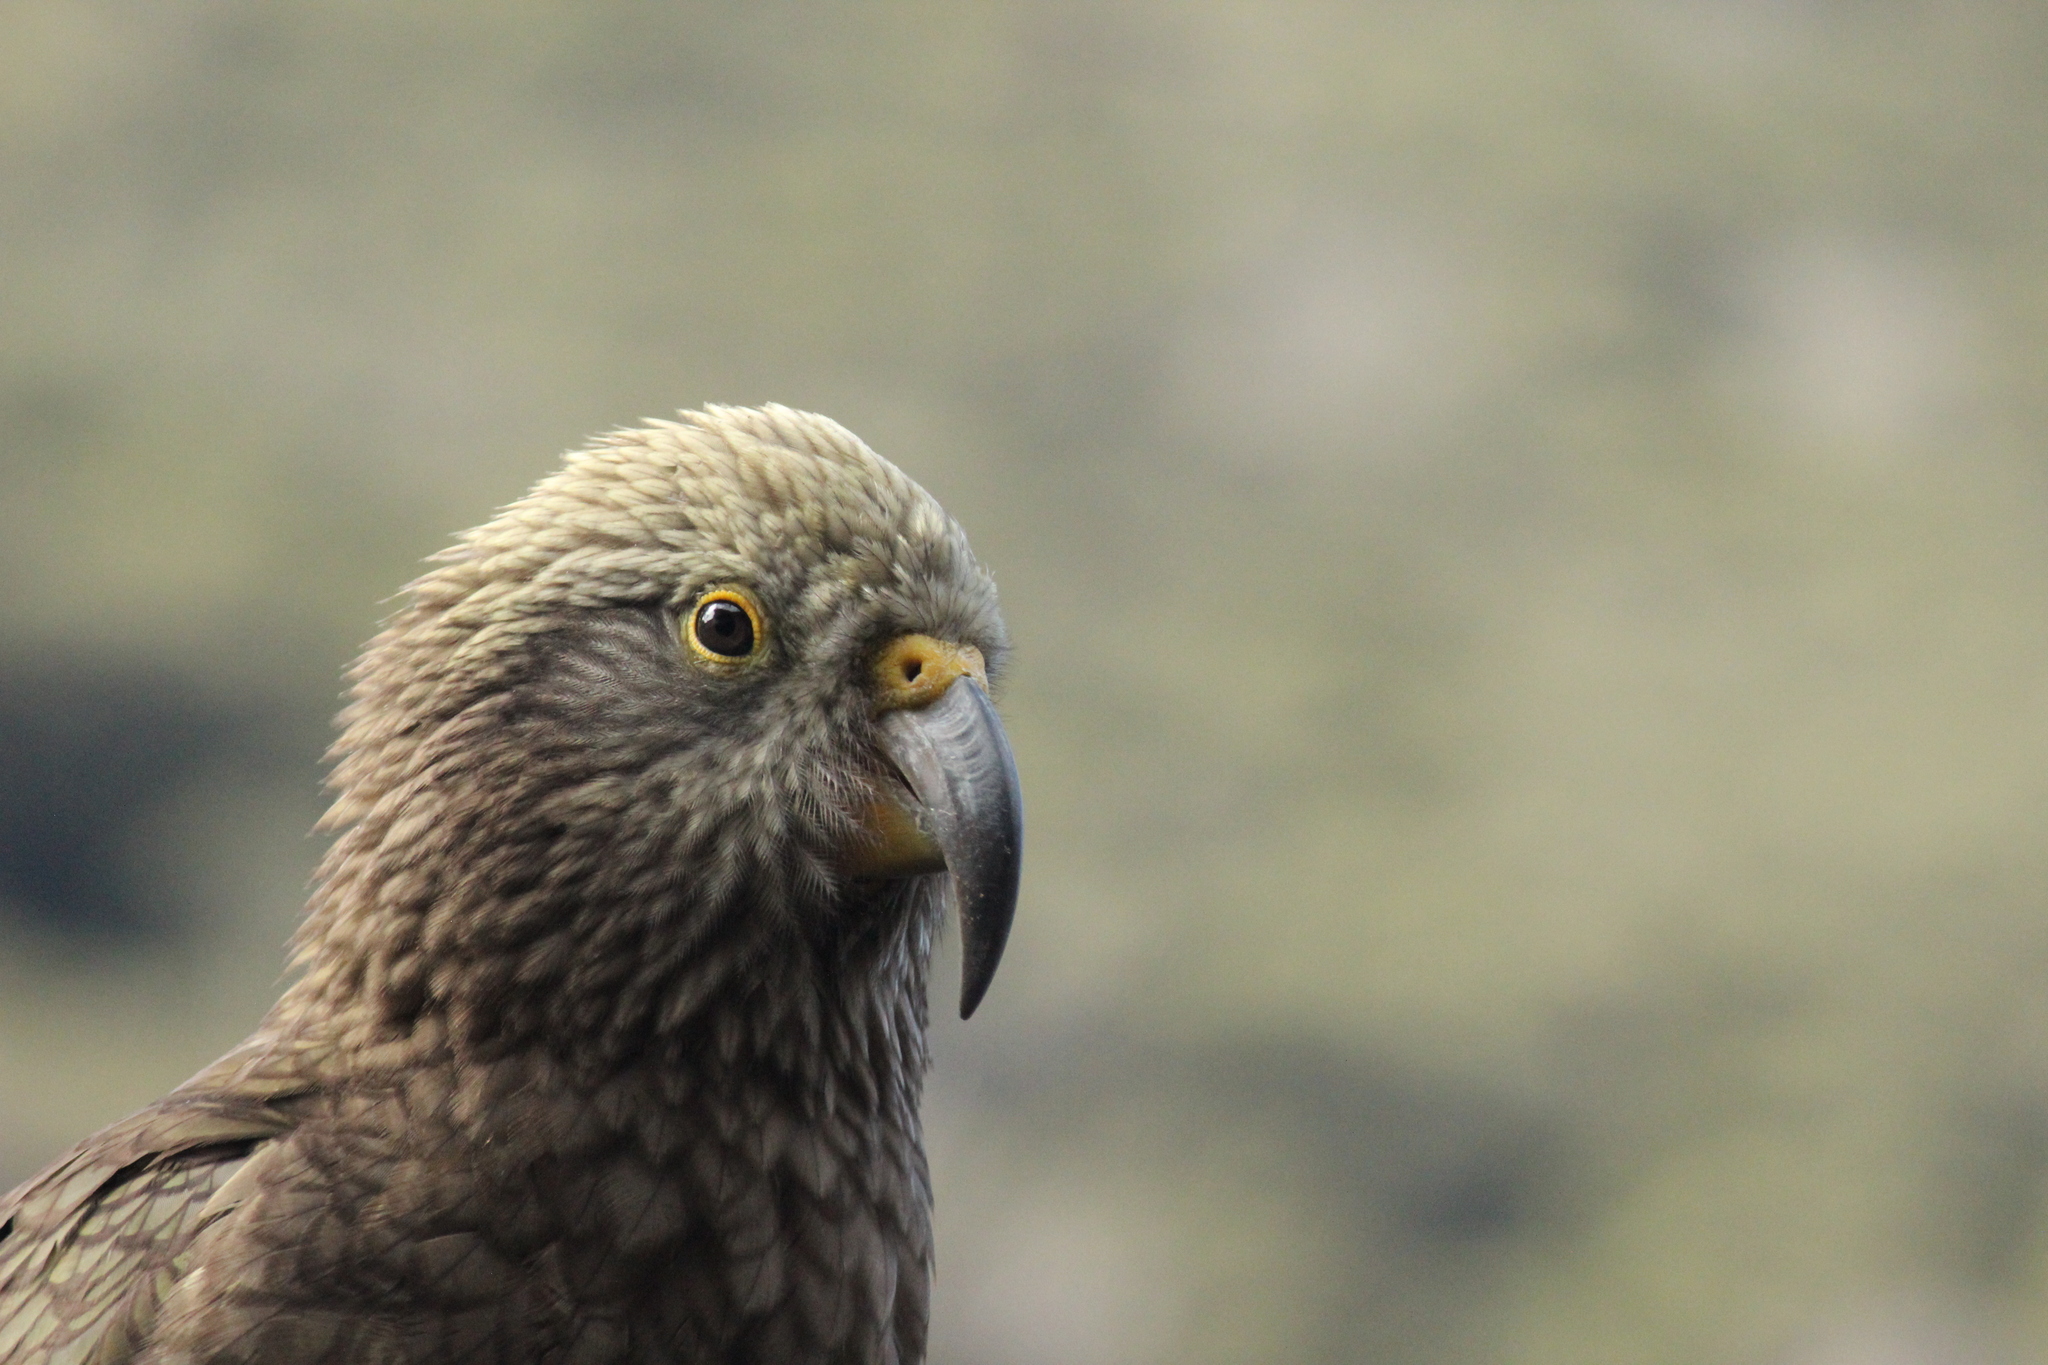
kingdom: Animalia
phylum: Chordata
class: Aves
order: Psittaciformes
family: Psittacidae
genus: Nestor
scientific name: Nestor notabilis
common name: Kea
